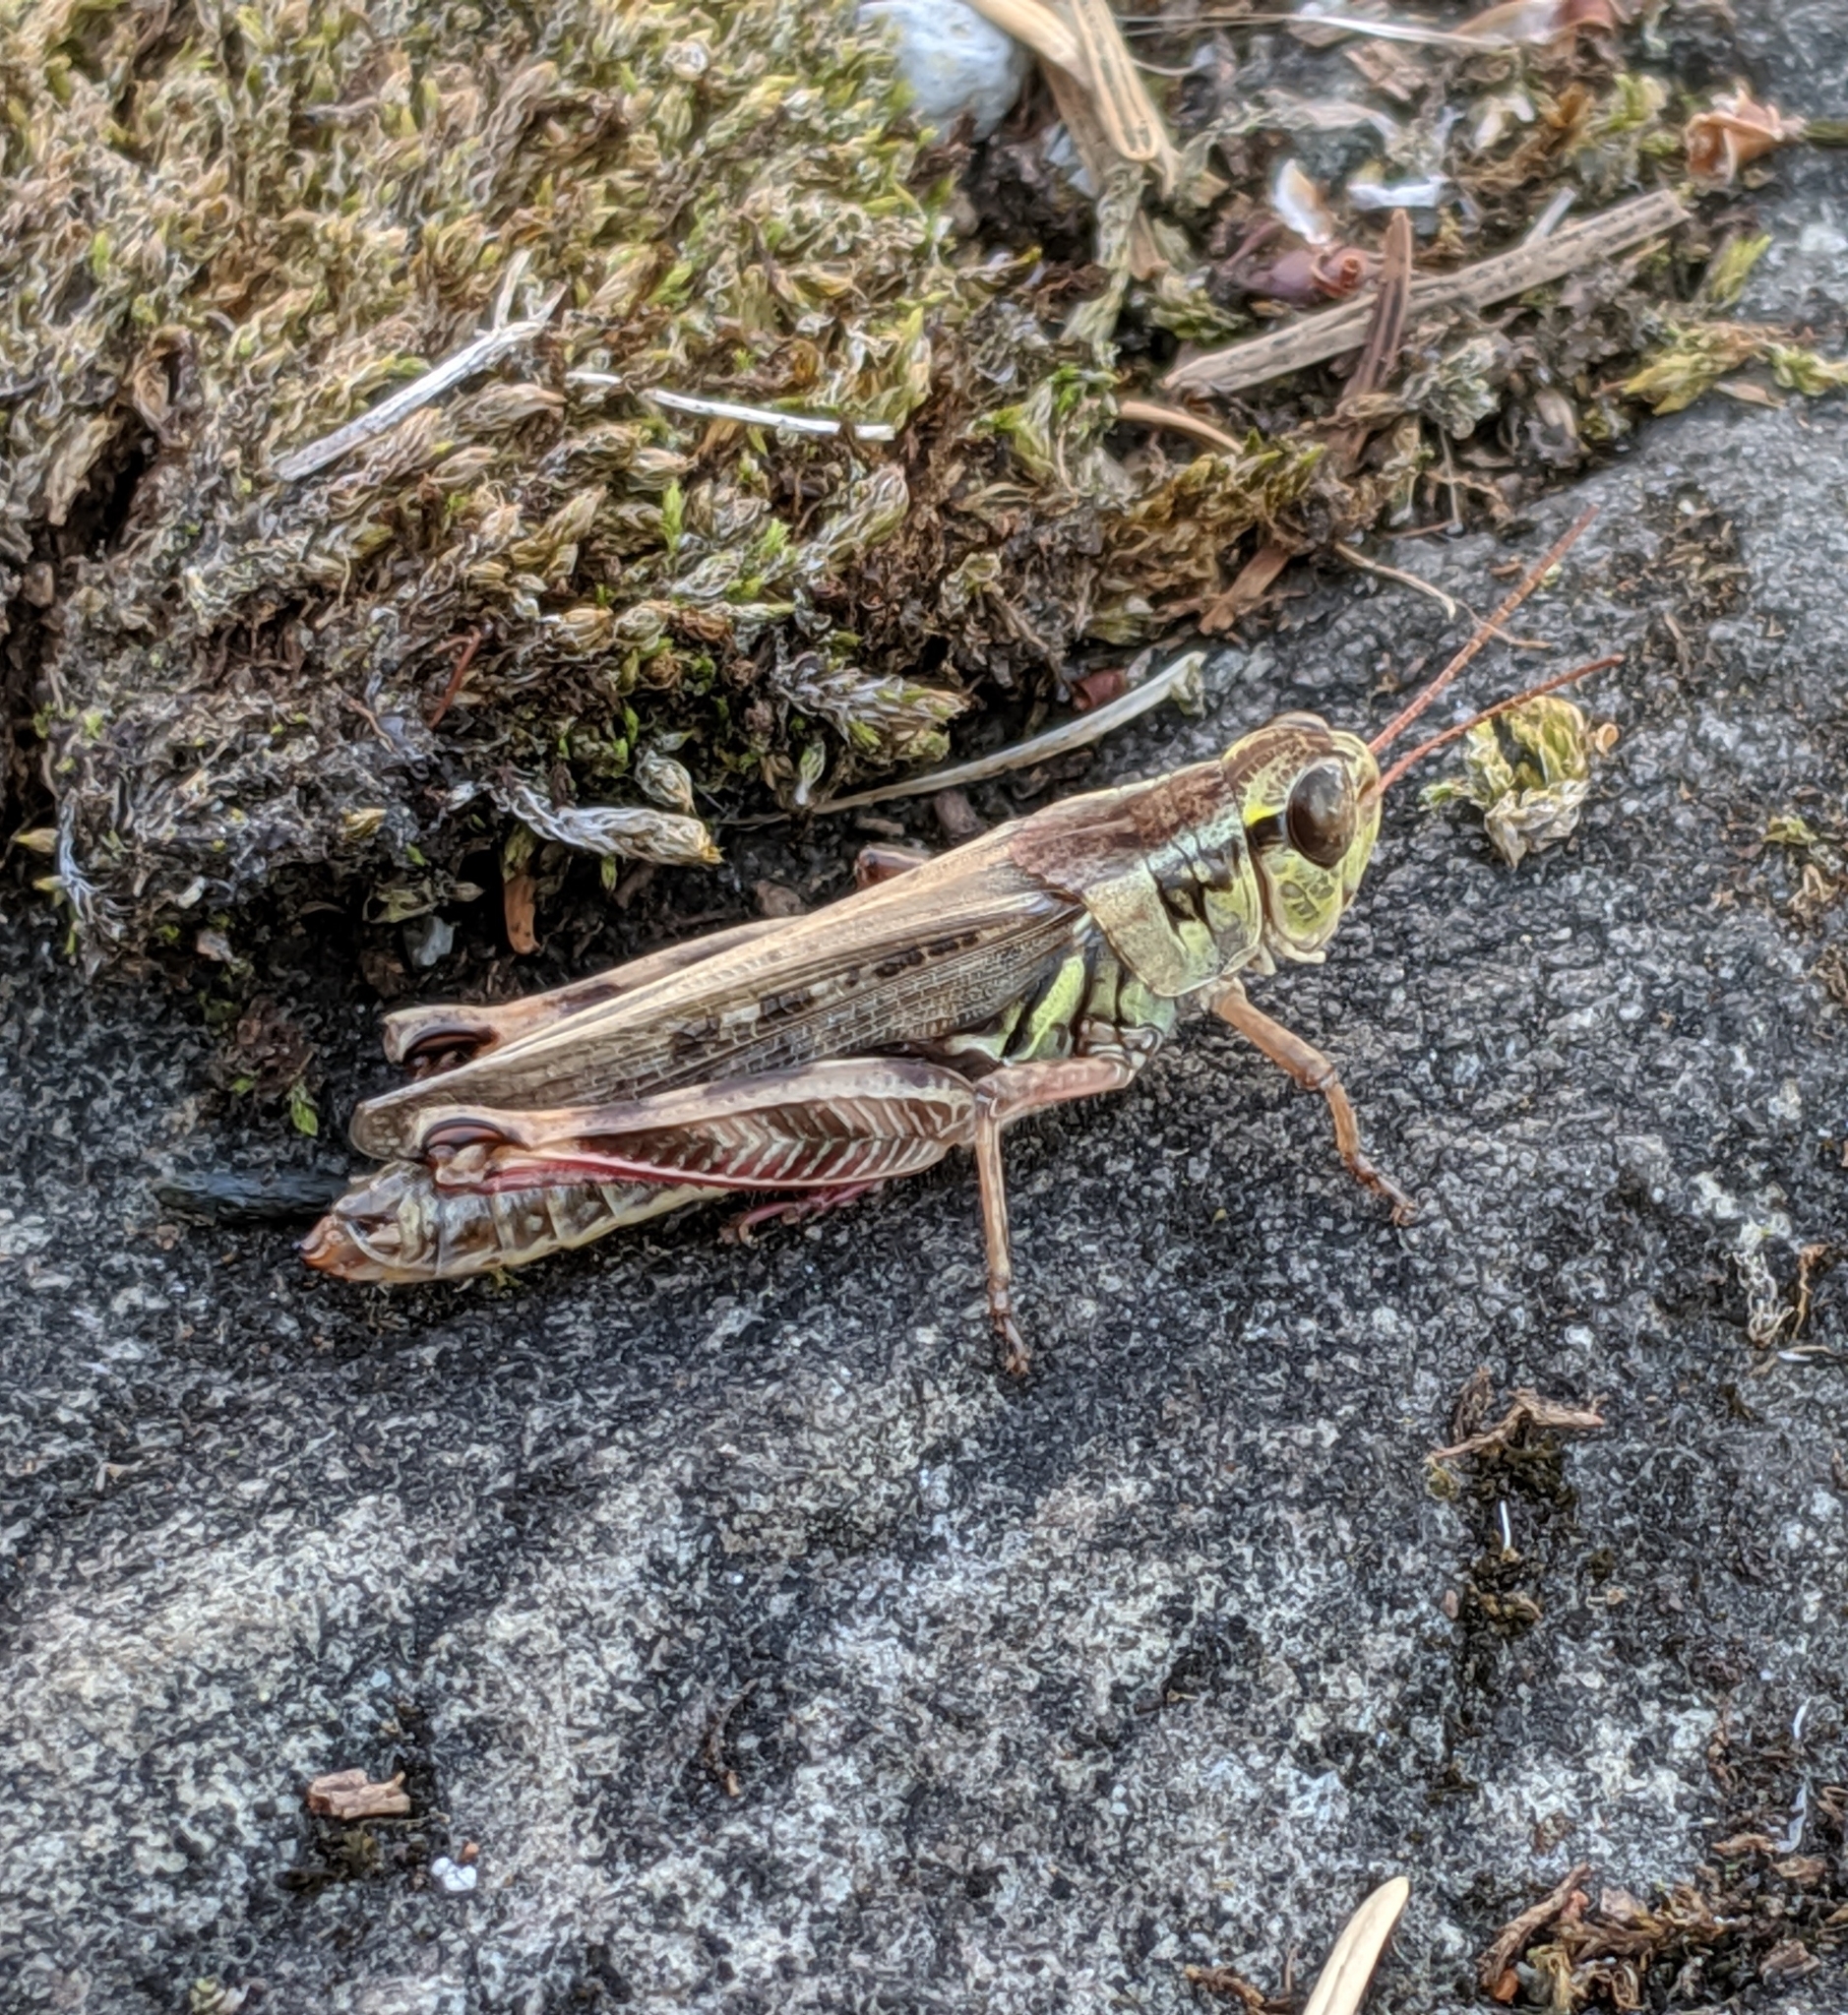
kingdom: Animalia
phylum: Arthropoda
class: Insecta
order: Orthoptera
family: Acrididae
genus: Melanoplus
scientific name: Melanoplus femurrubrum
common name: Red-legged grasshopper
